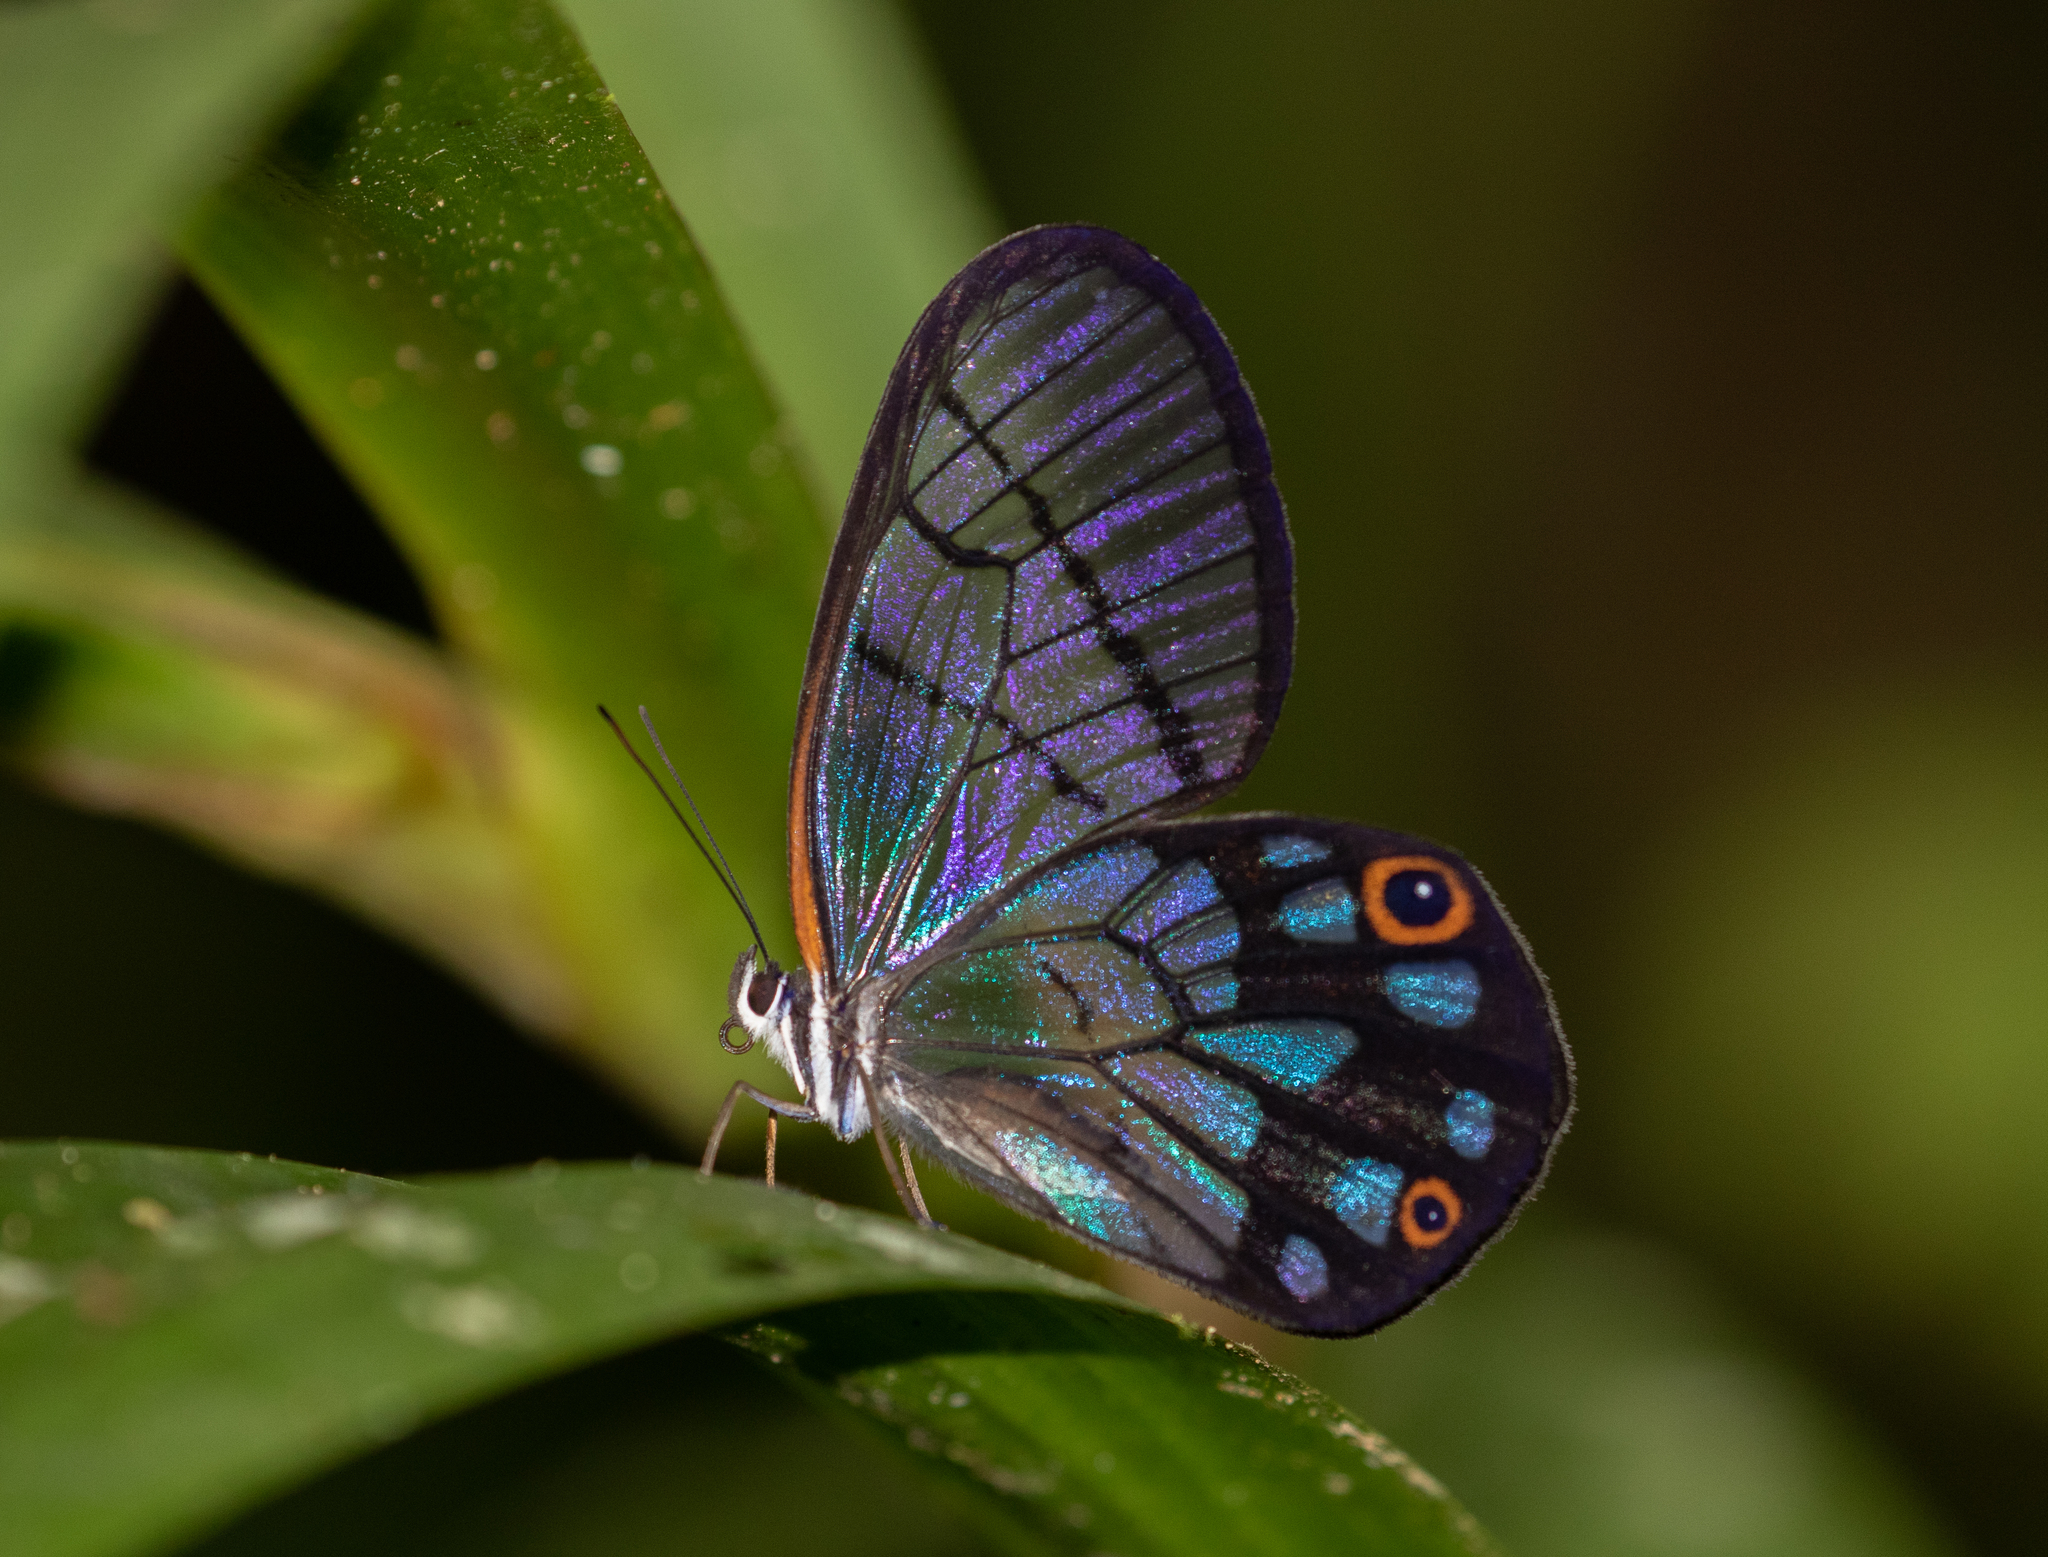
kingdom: Animalia
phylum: Arthropoda
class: Insecta
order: Lepidoptera
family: Nymphalidae
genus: Pseudohaetera
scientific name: Pseudohaetera
